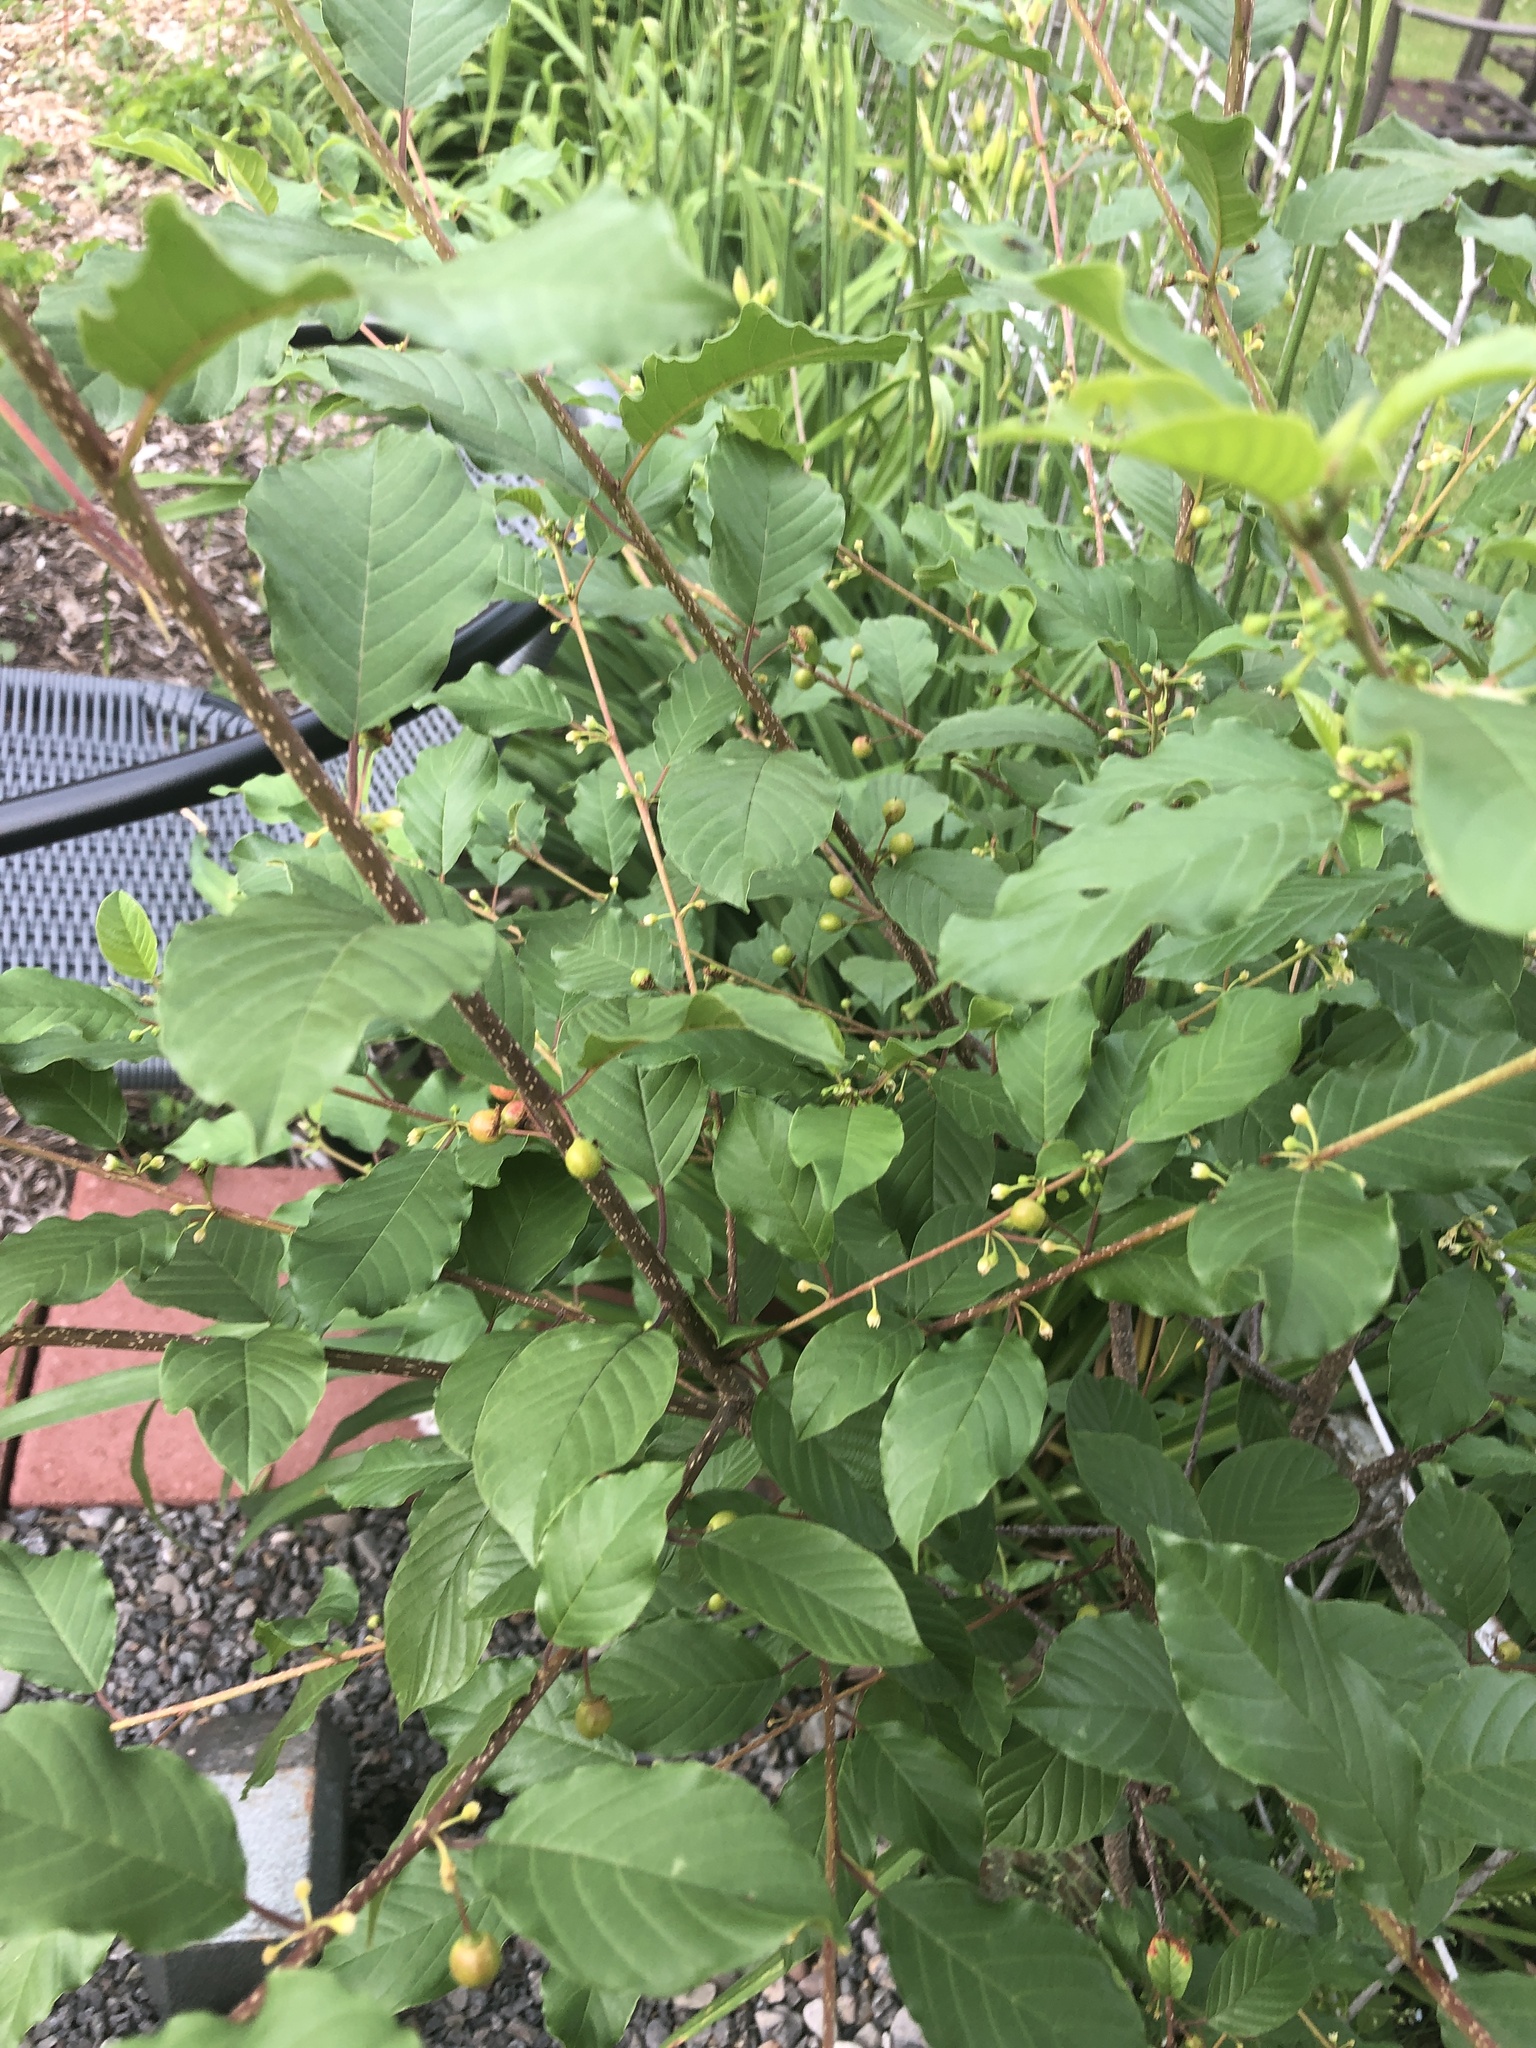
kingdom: Plantae
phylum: Tracheophyta
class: Magnoliopsida
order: Rosales
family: Rhamnaceae
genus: Frangula
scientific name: Frangula alnus
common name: Alder buckthorn
